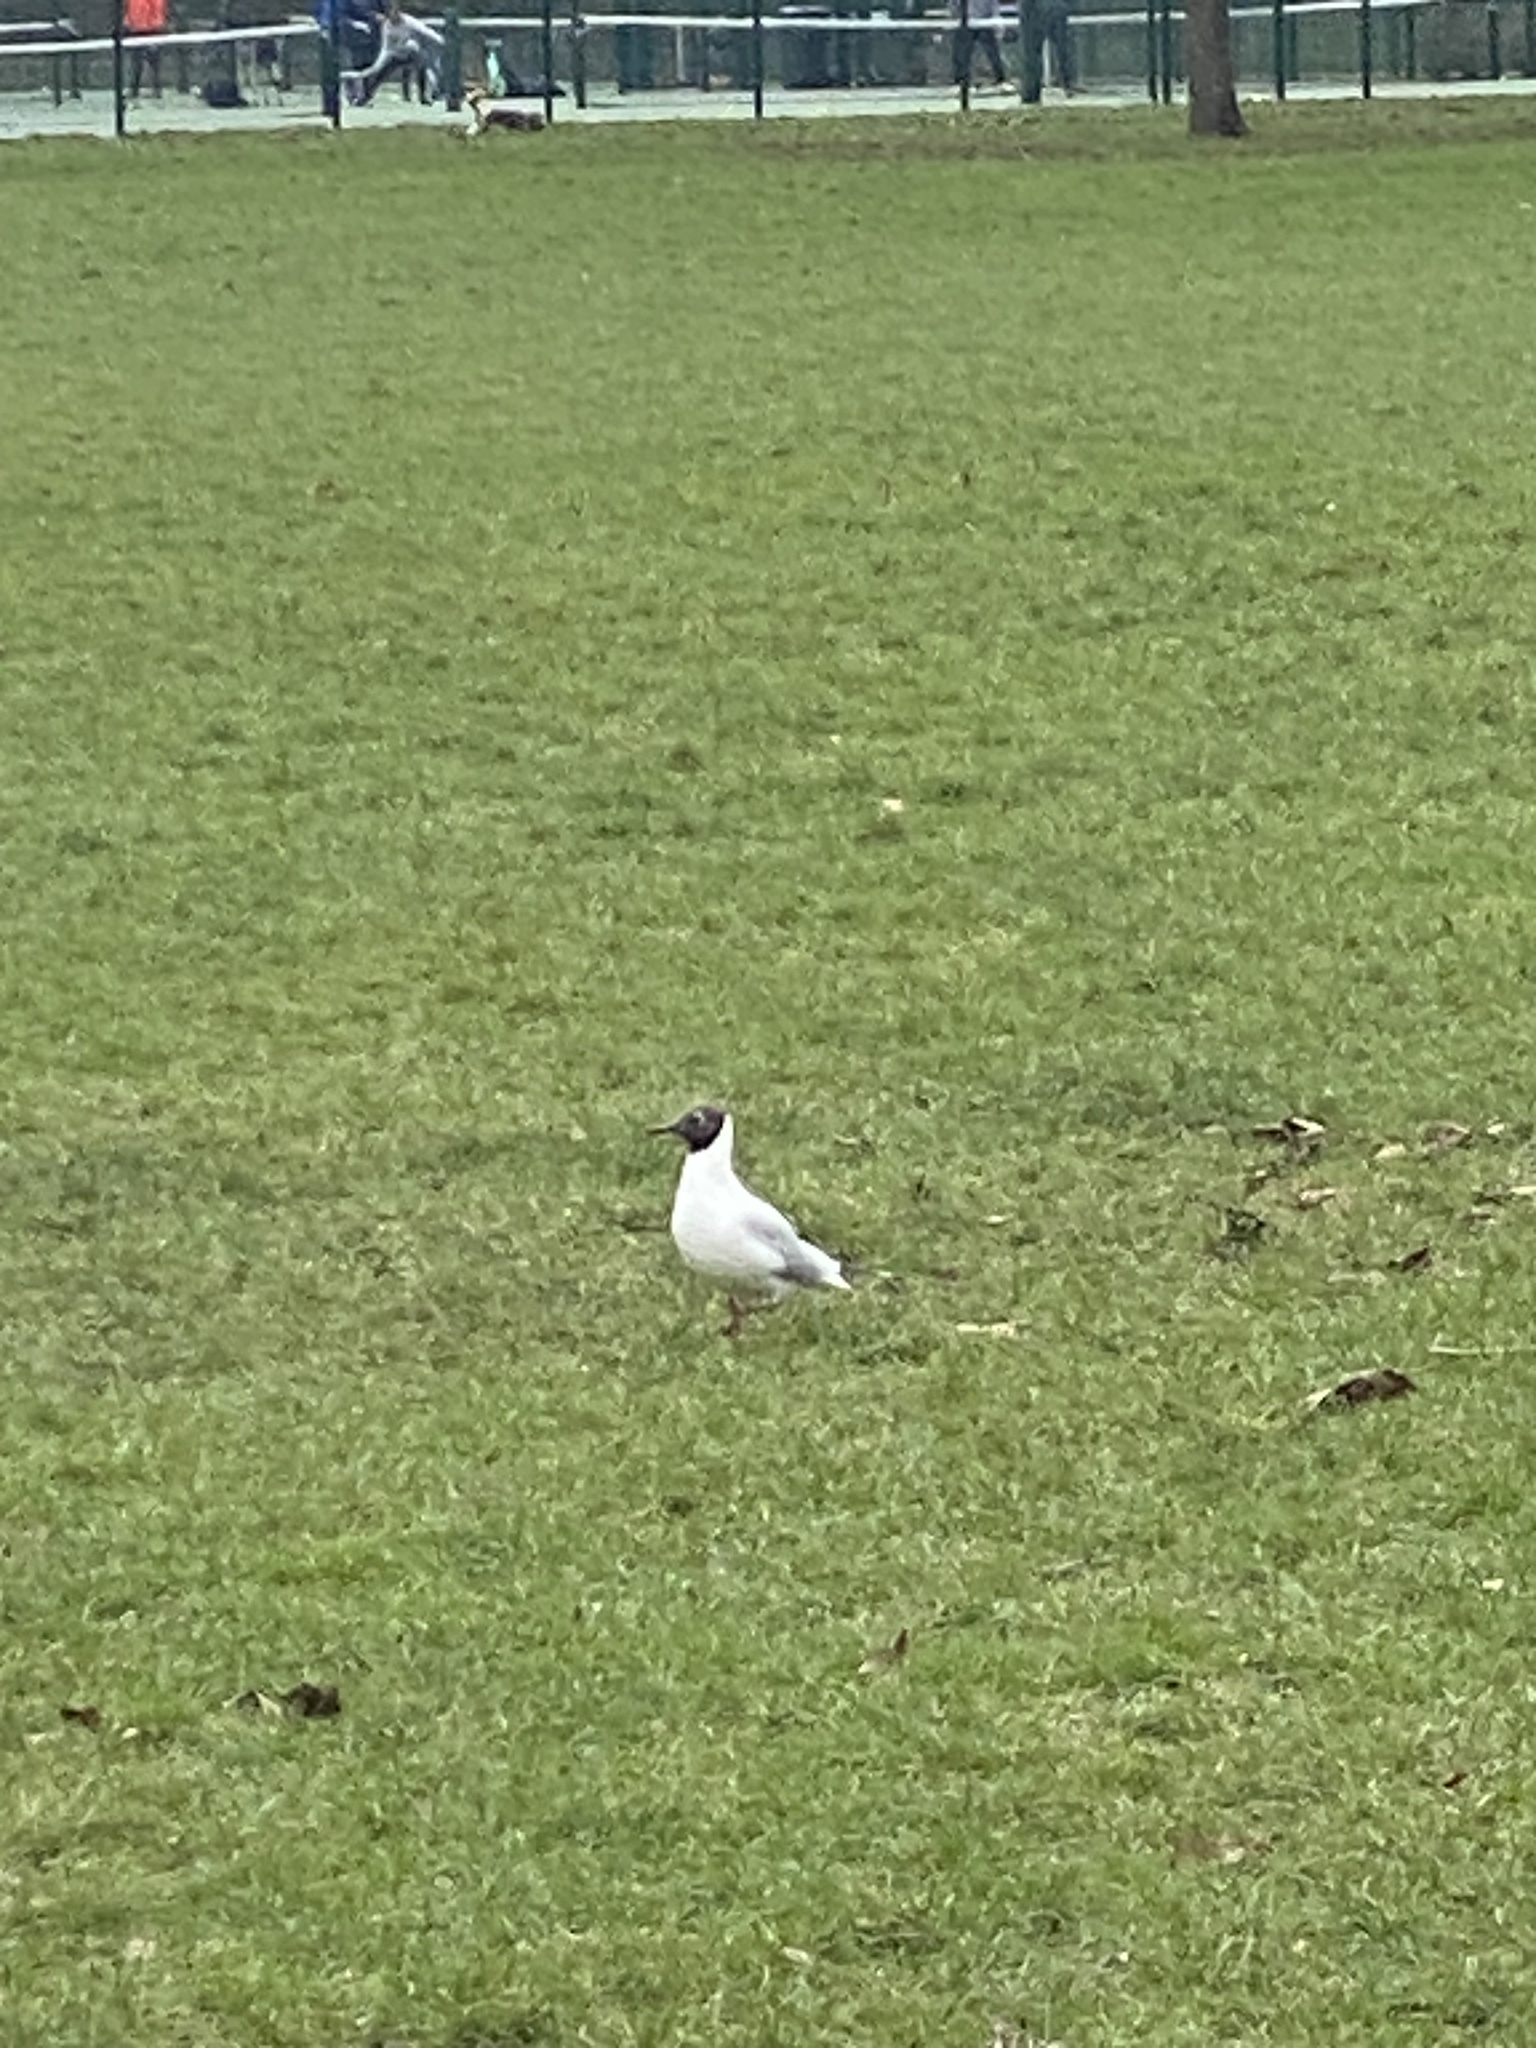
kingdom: Animalia
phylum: Chordata
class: Aves
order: Charadriiformes
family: Laridae
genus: Chroicocephalus
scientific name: Chroicocephalus ridibundus
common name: Black-headed gull
